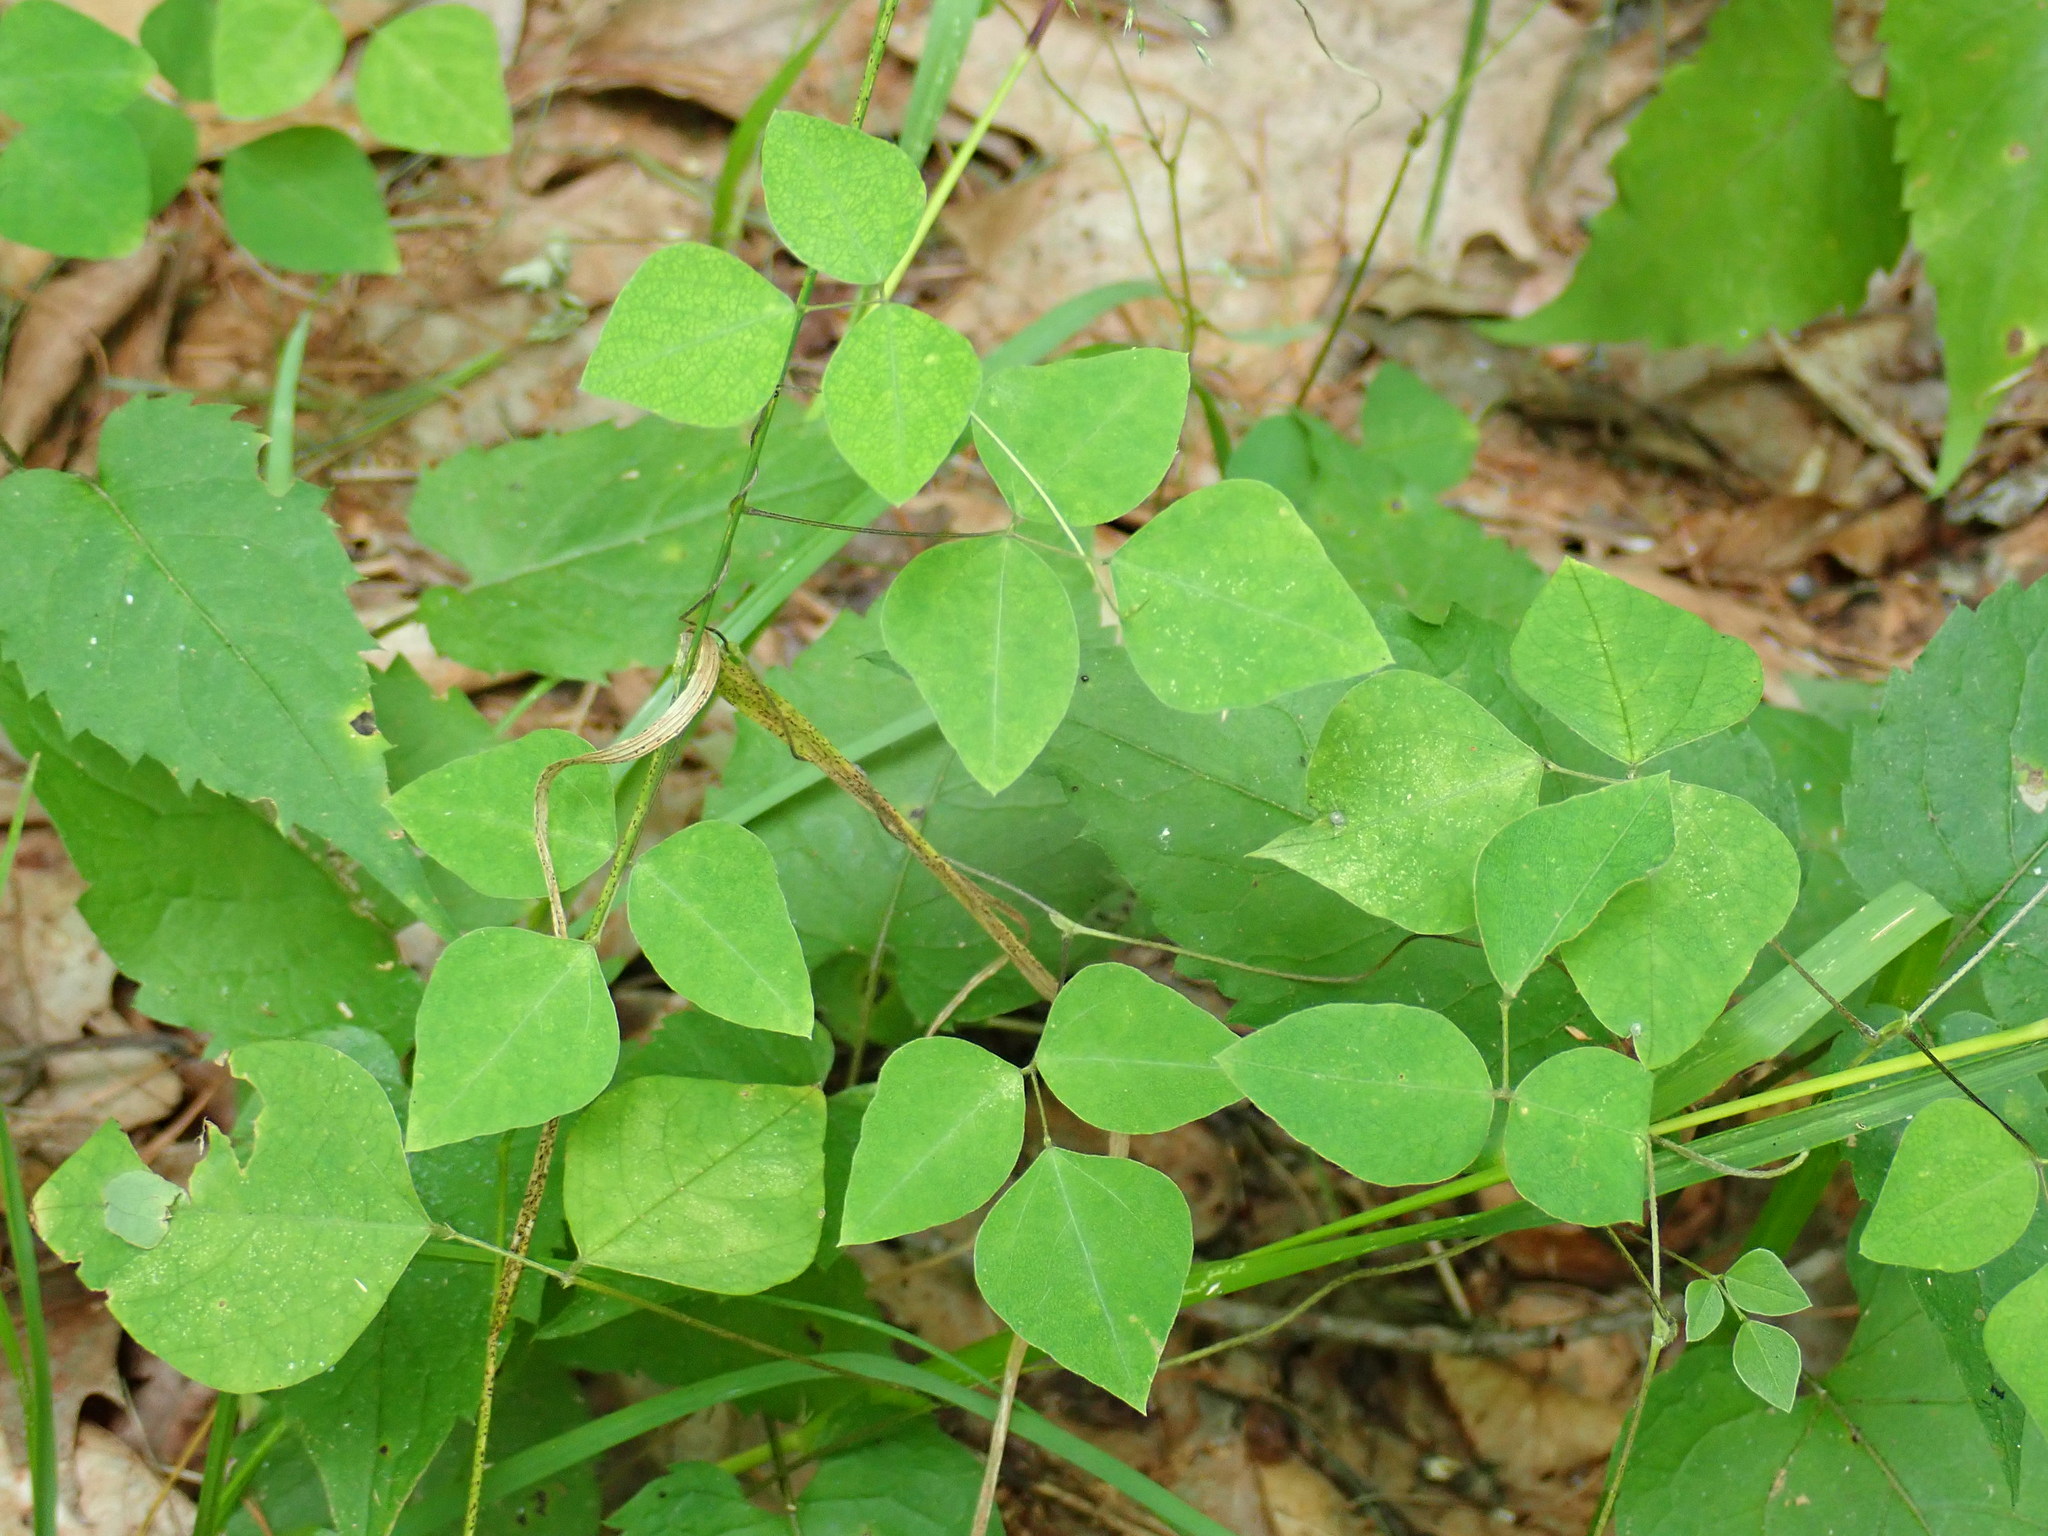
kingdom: Plantae
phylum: Tracheophyta
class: Magnoliopsida
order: Fabales
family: Fabaceae
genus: Amphicarpaea
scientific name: Amphicarpaea bracteata
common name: American hog peanut
